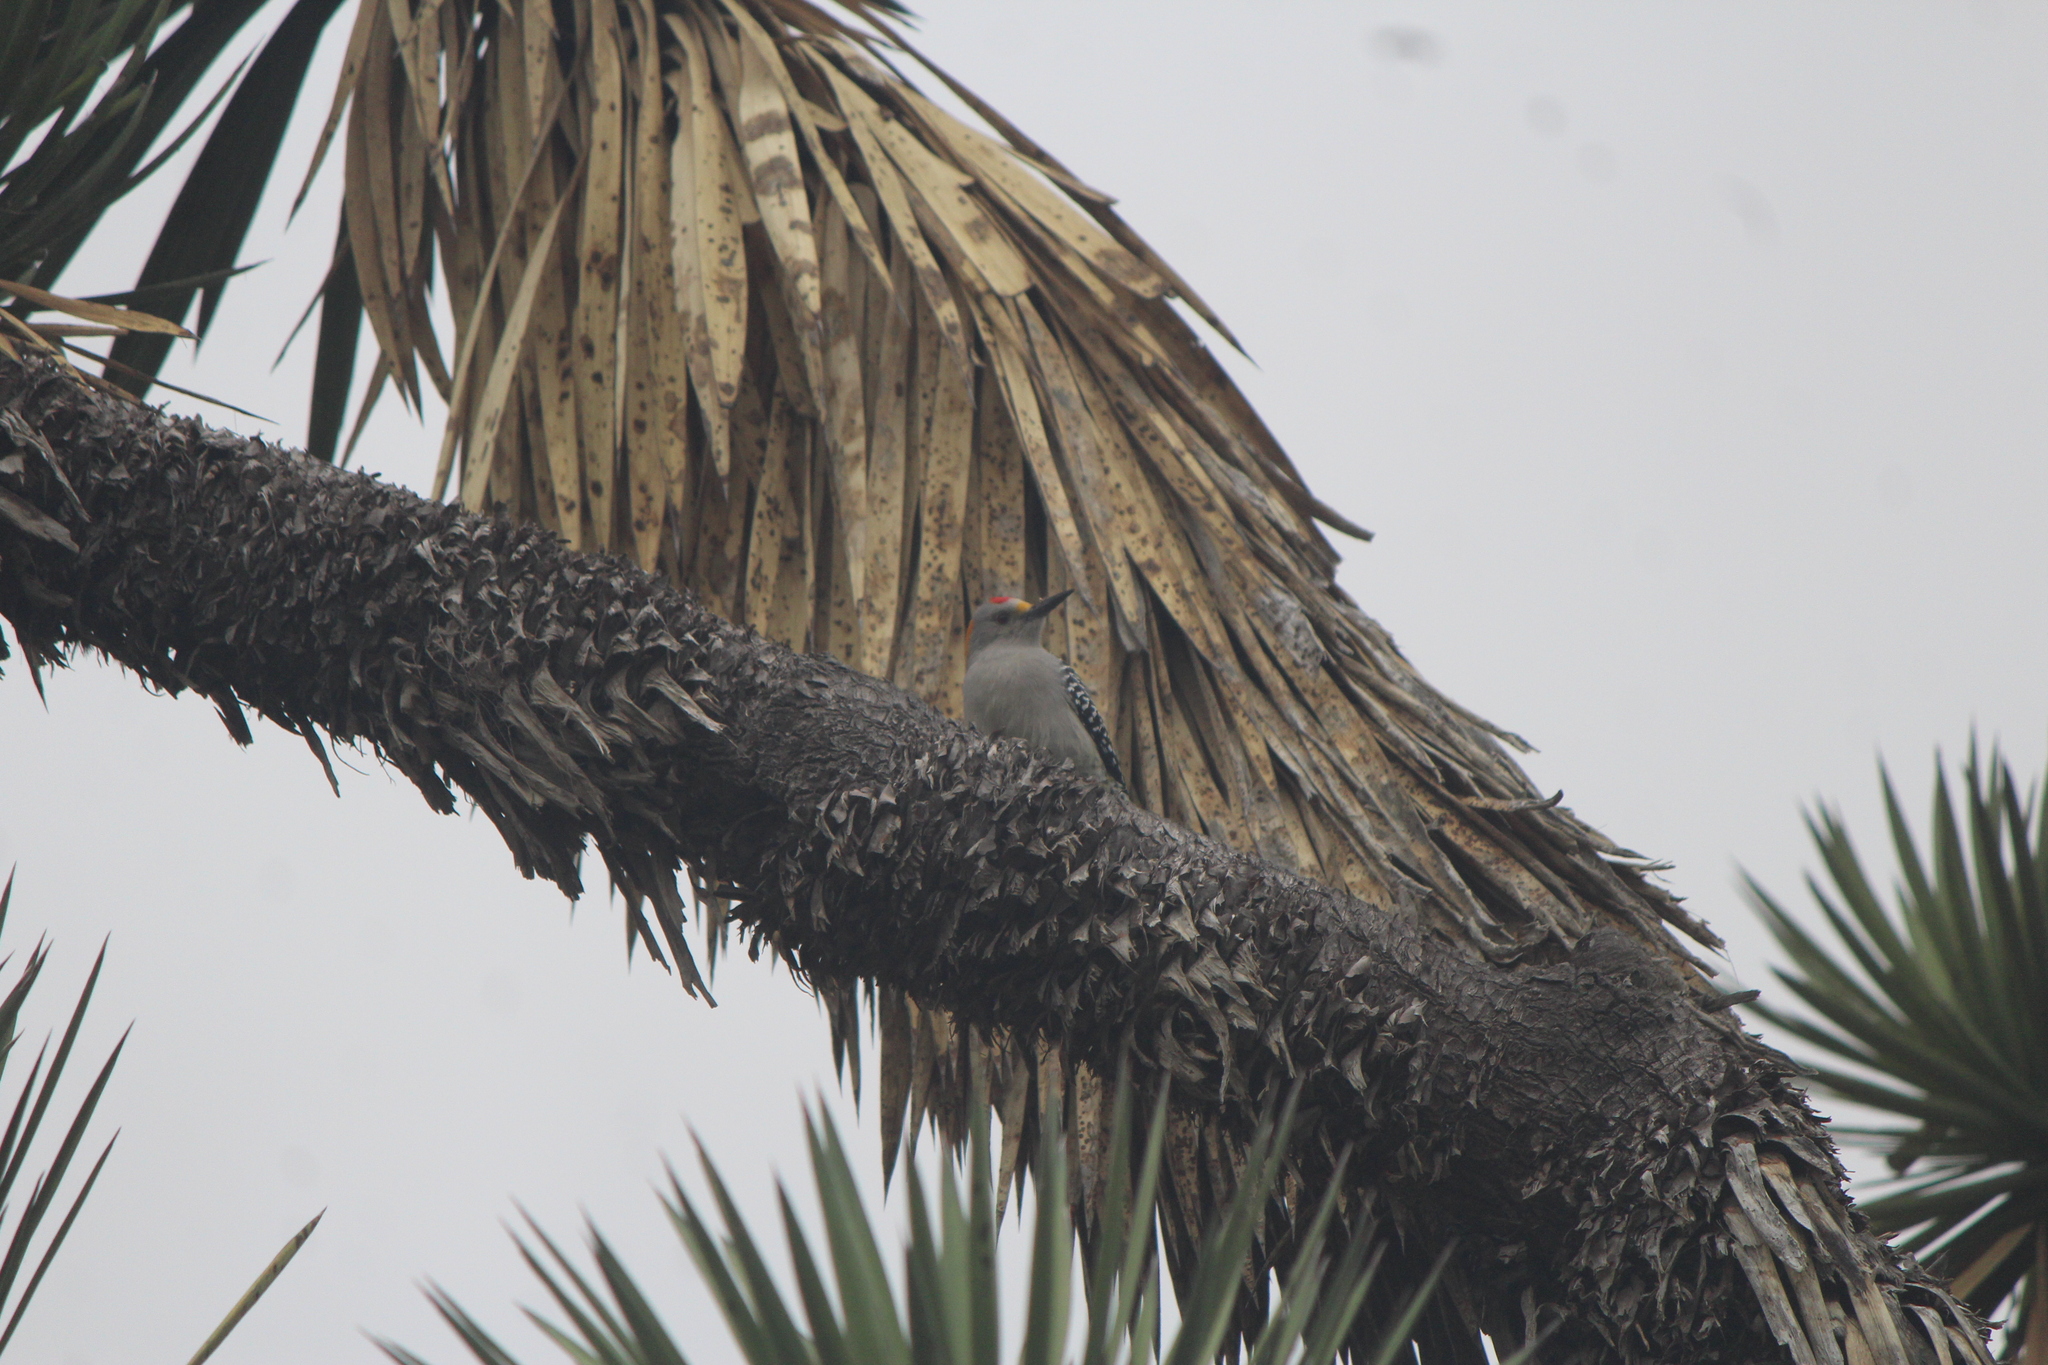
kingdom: Animalia
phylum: Chordata
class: Aves
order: Piciformes
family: Picidae
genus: Melanerpes
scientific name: Melanerpes aurifrons
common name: Golden-fronted woodpecker
